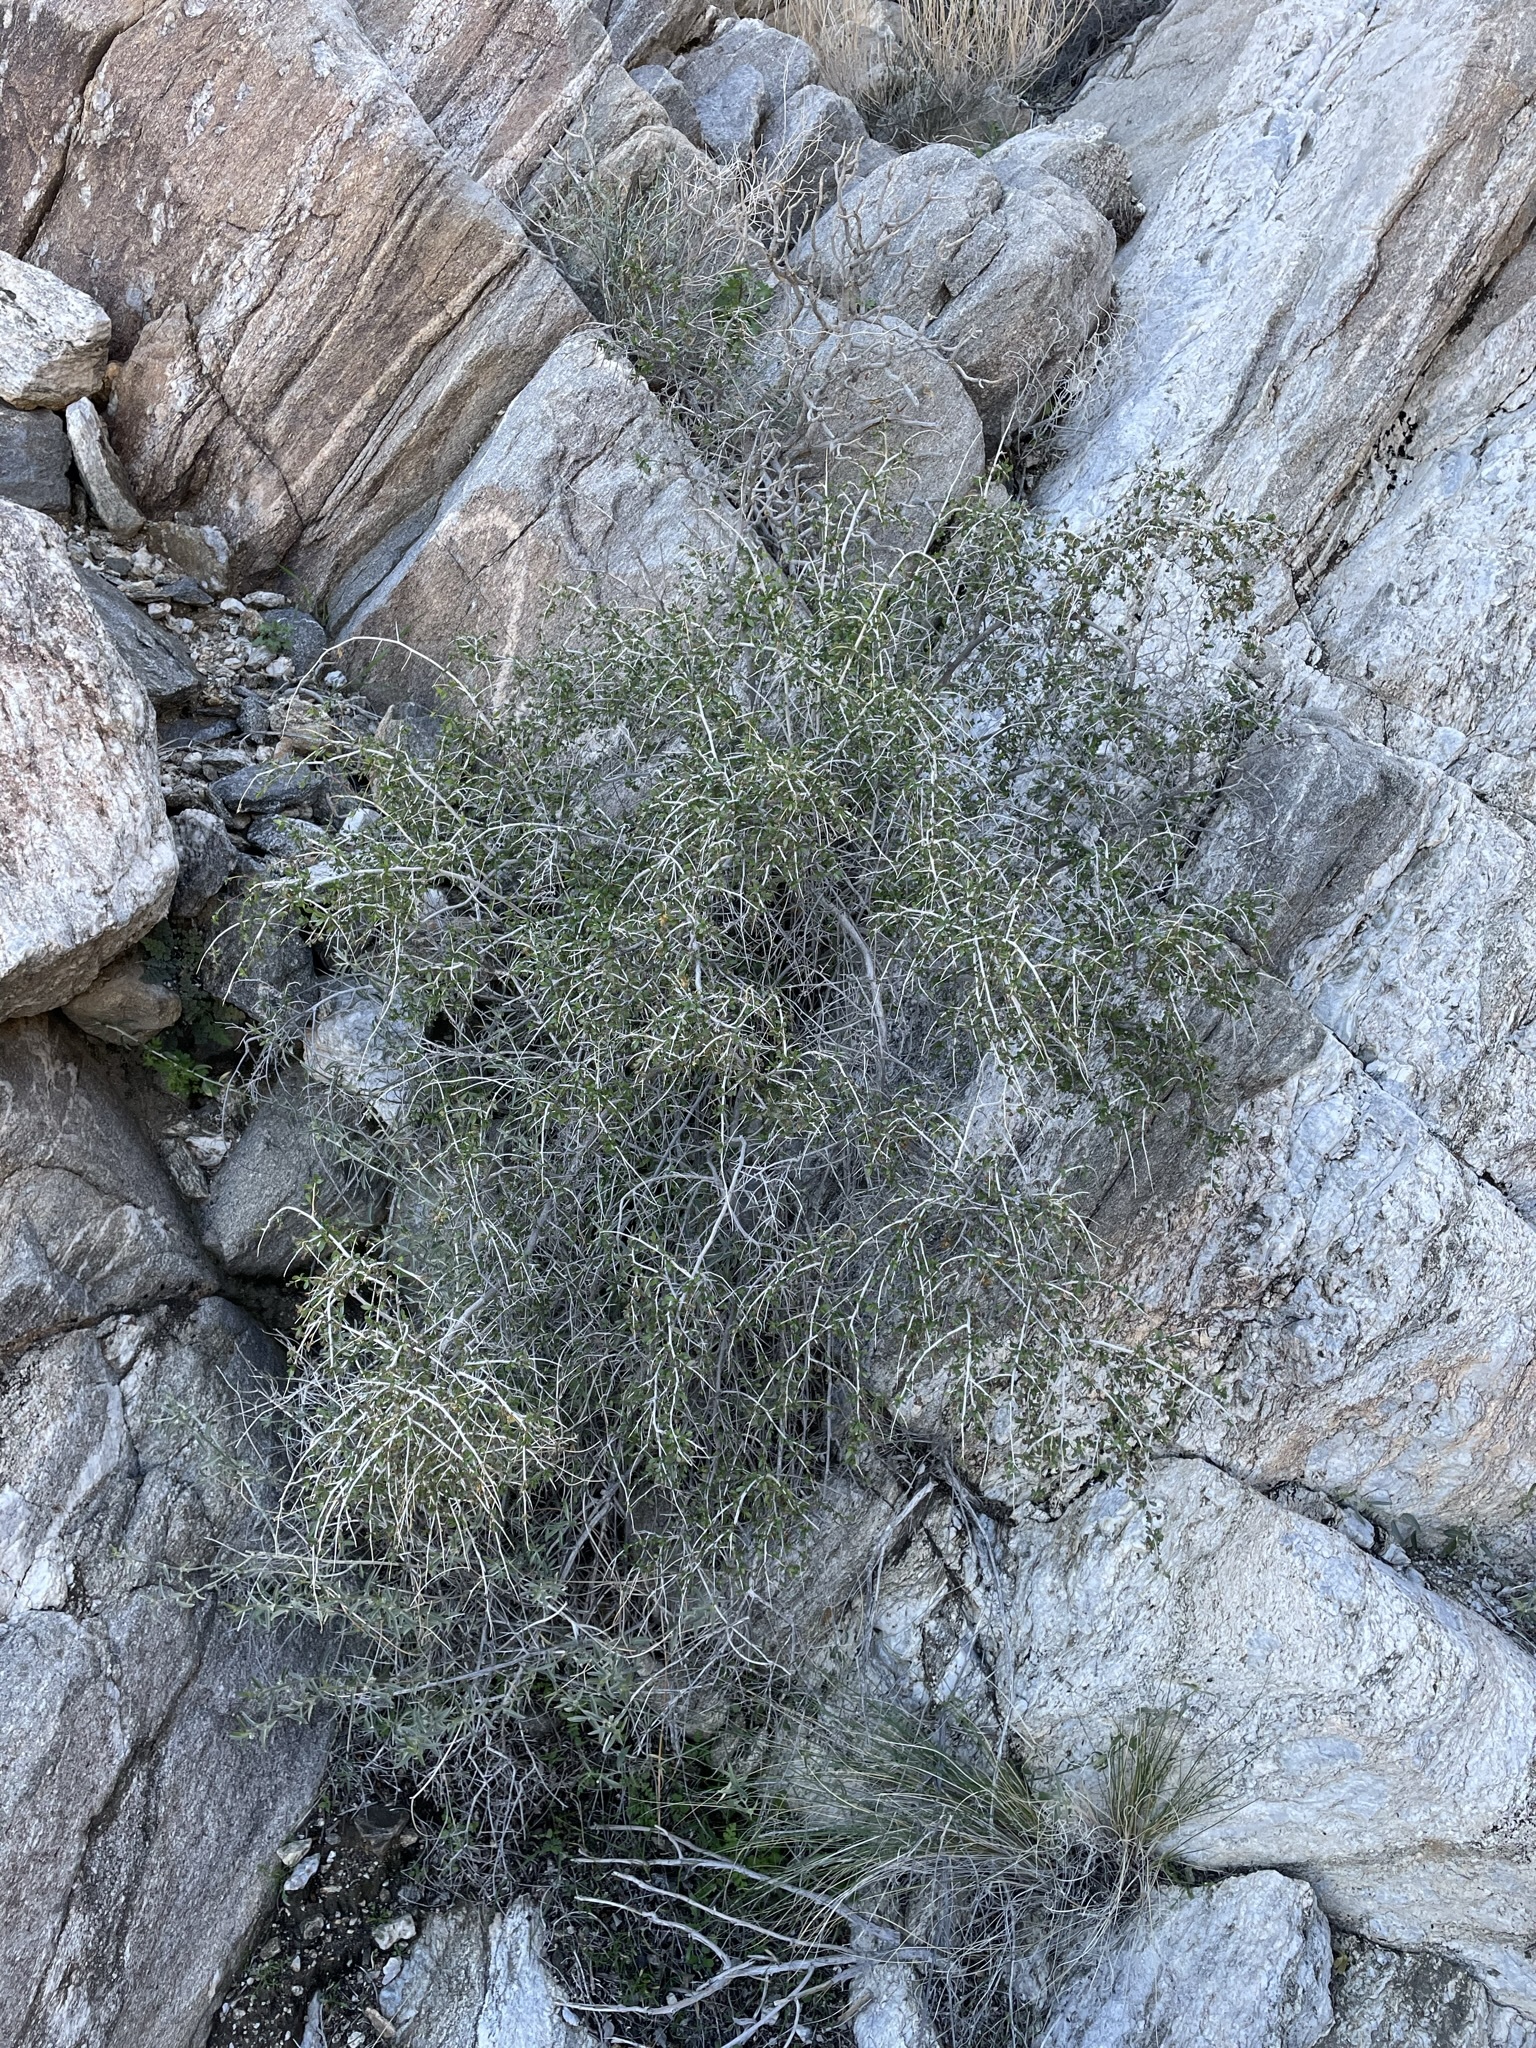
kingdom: Plantae
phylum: Tracheophyta
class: Magnoliopsida
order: Crossosomatales
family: Crossosomataceae
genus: Crossosoma
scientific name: Crossosoma bigelovii
